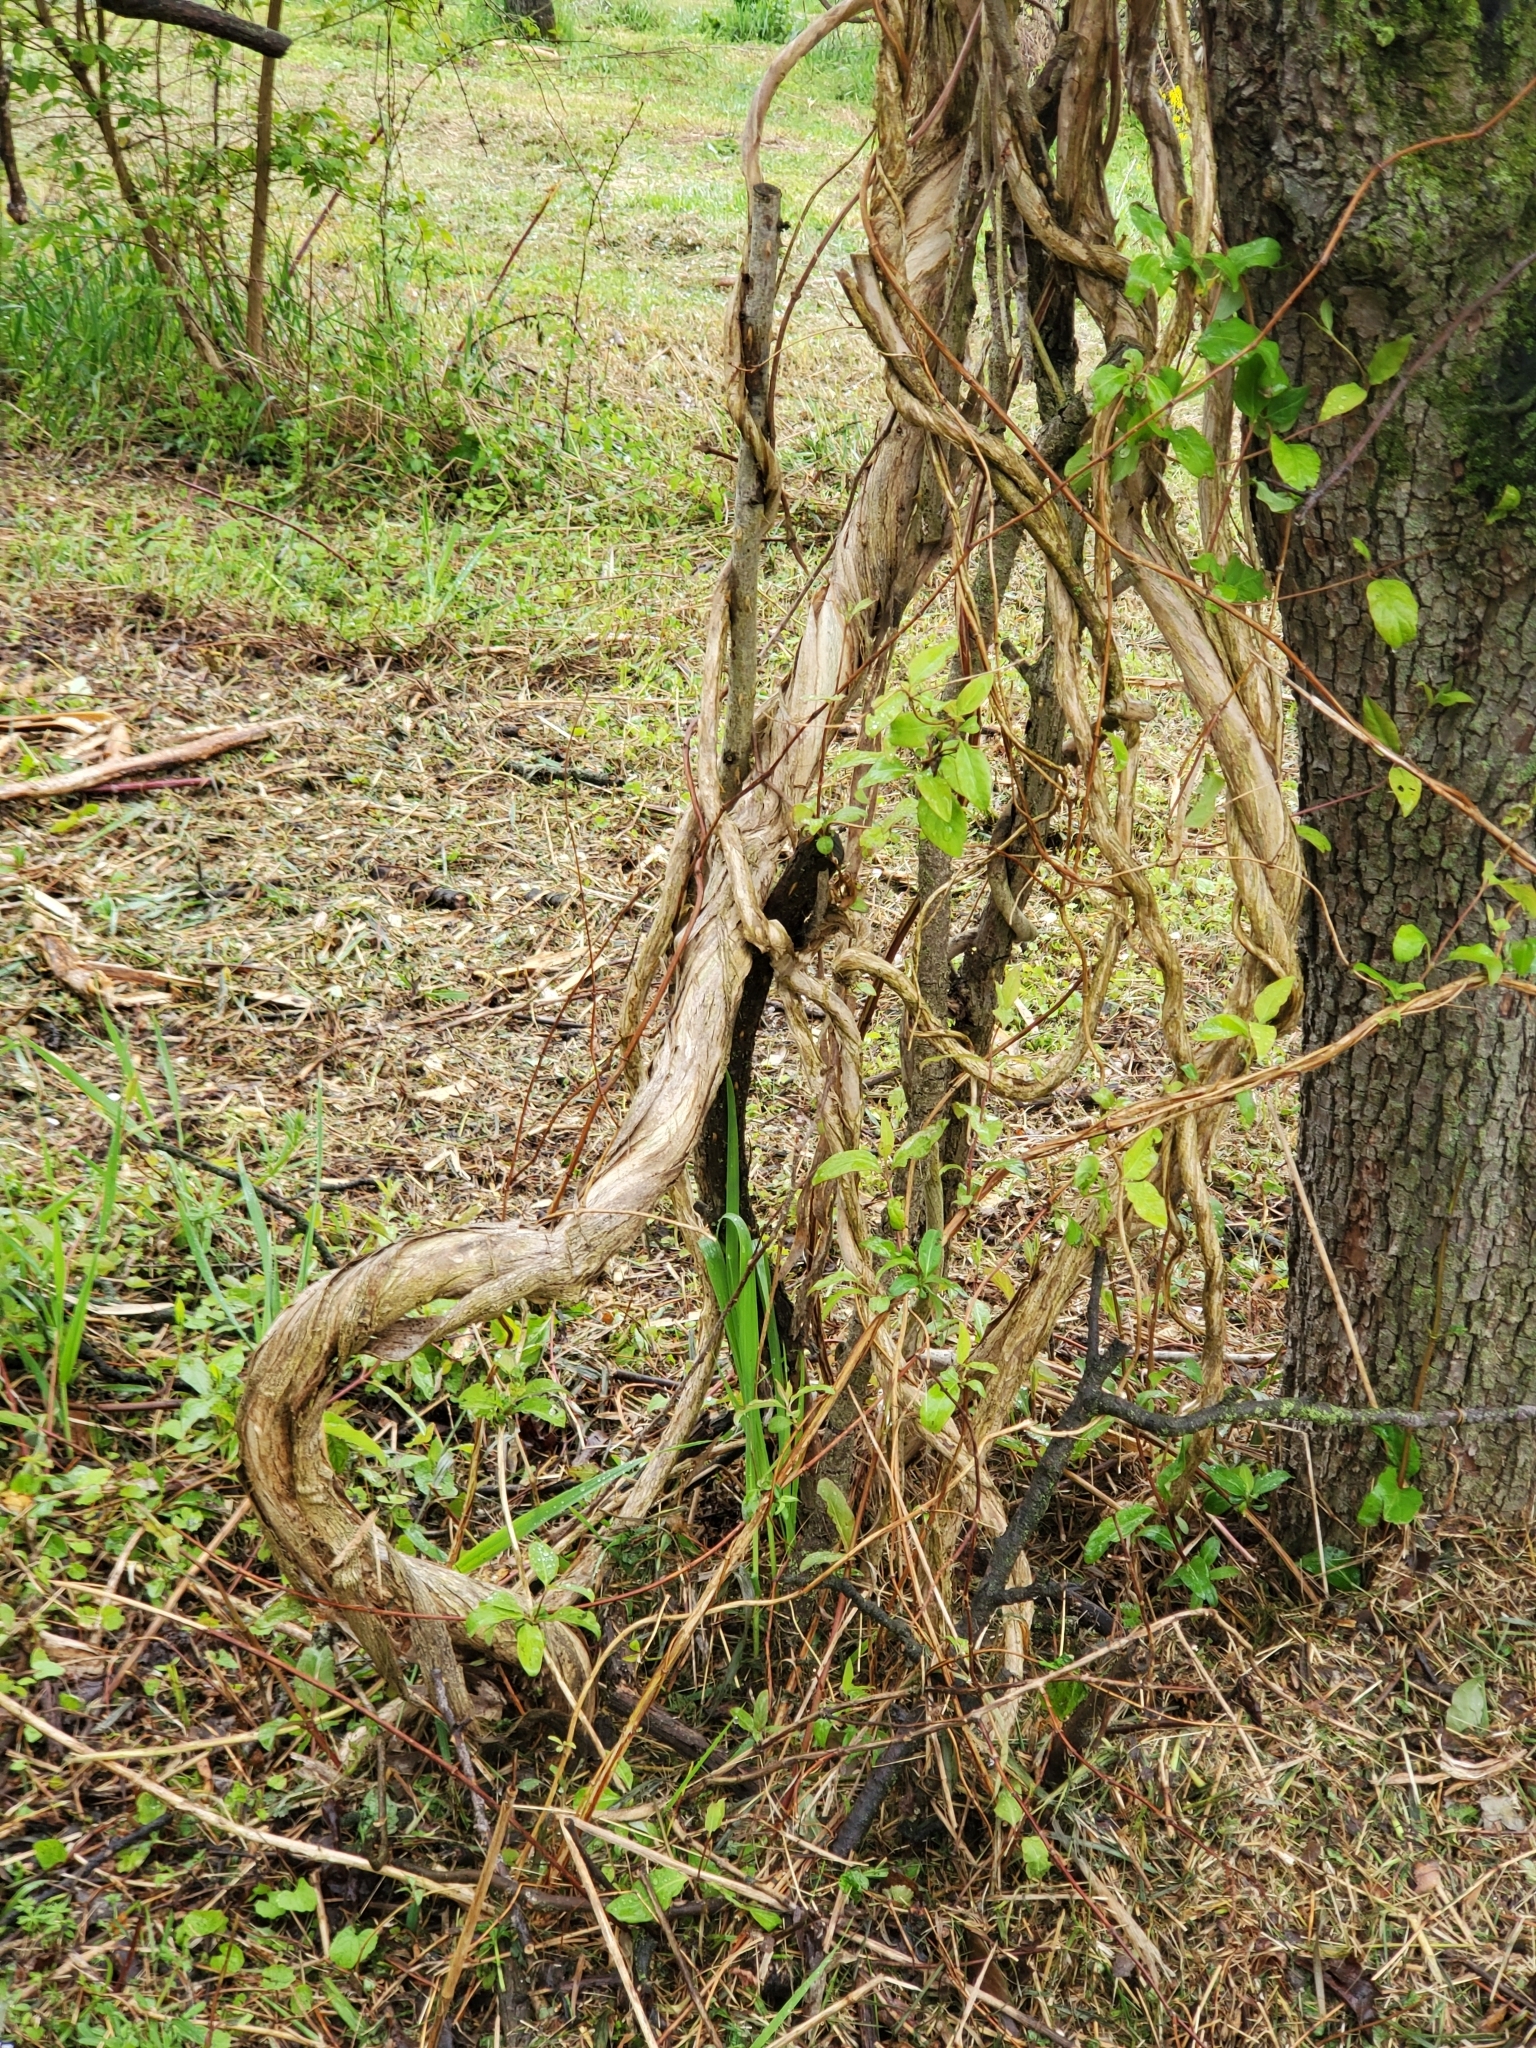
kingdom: Plantae
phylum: Tracheophyta
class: Magnoliopsida
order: Dipsacales
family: Caprifoliaceae
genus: Lonicera
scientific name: Lonicera japonica
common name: Japanese honeysuckle
